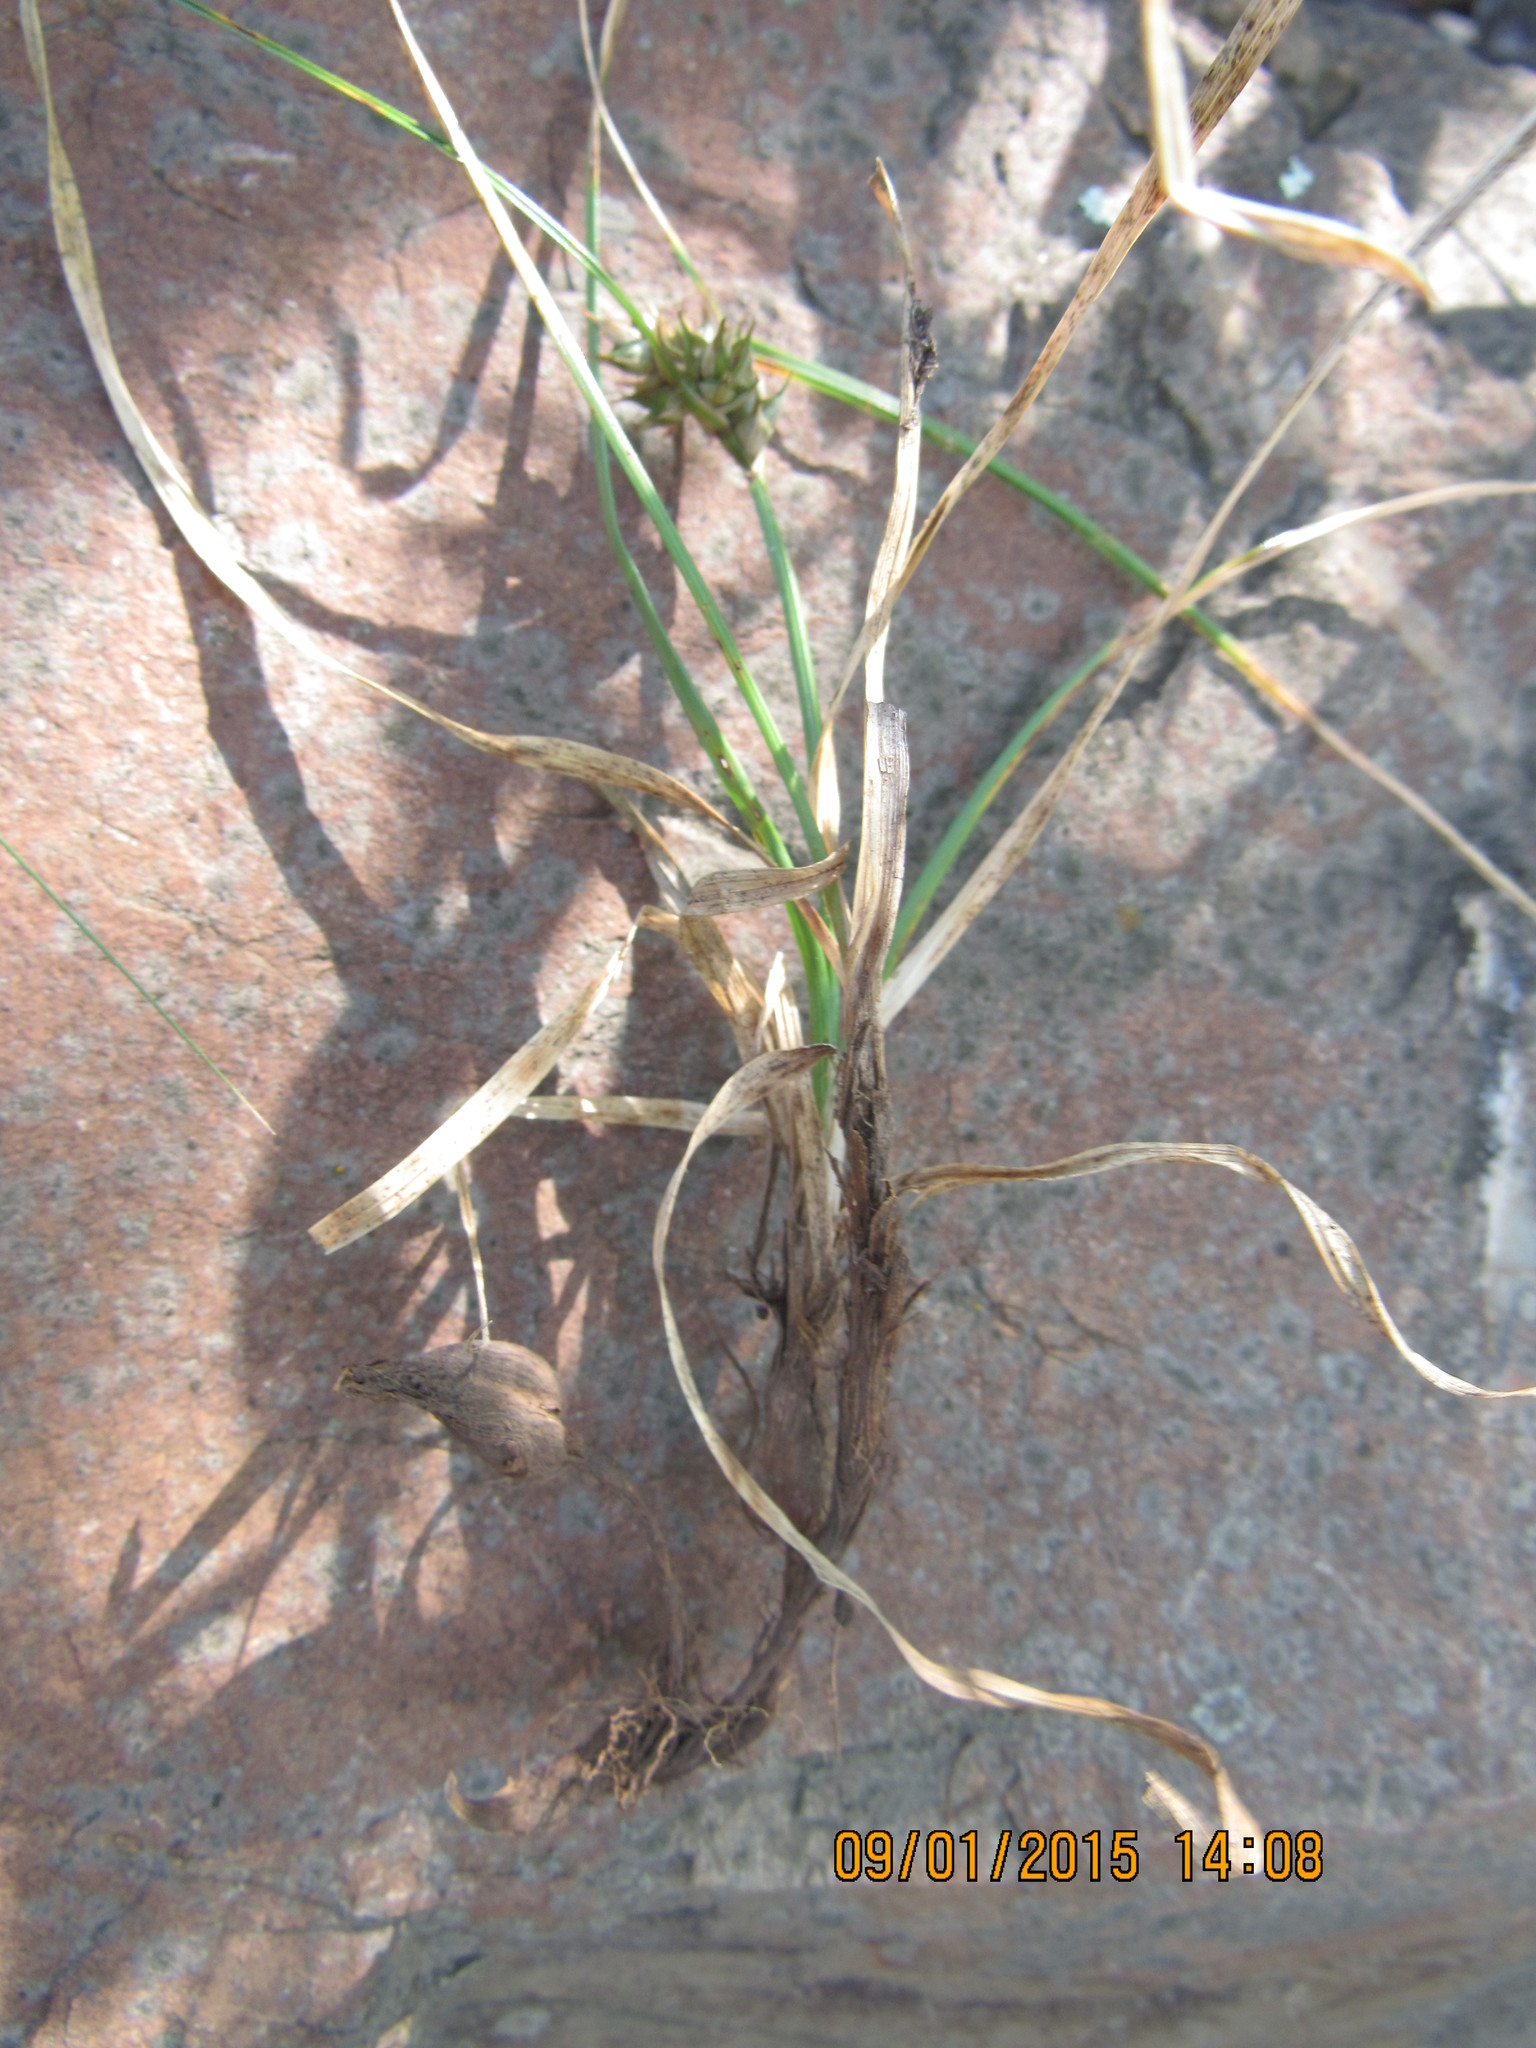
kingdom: Plantae
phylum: Tracheophyta
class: Liliopsida
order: Poales
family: Cyperaceae
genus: Carex
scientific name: Carex rupicola
